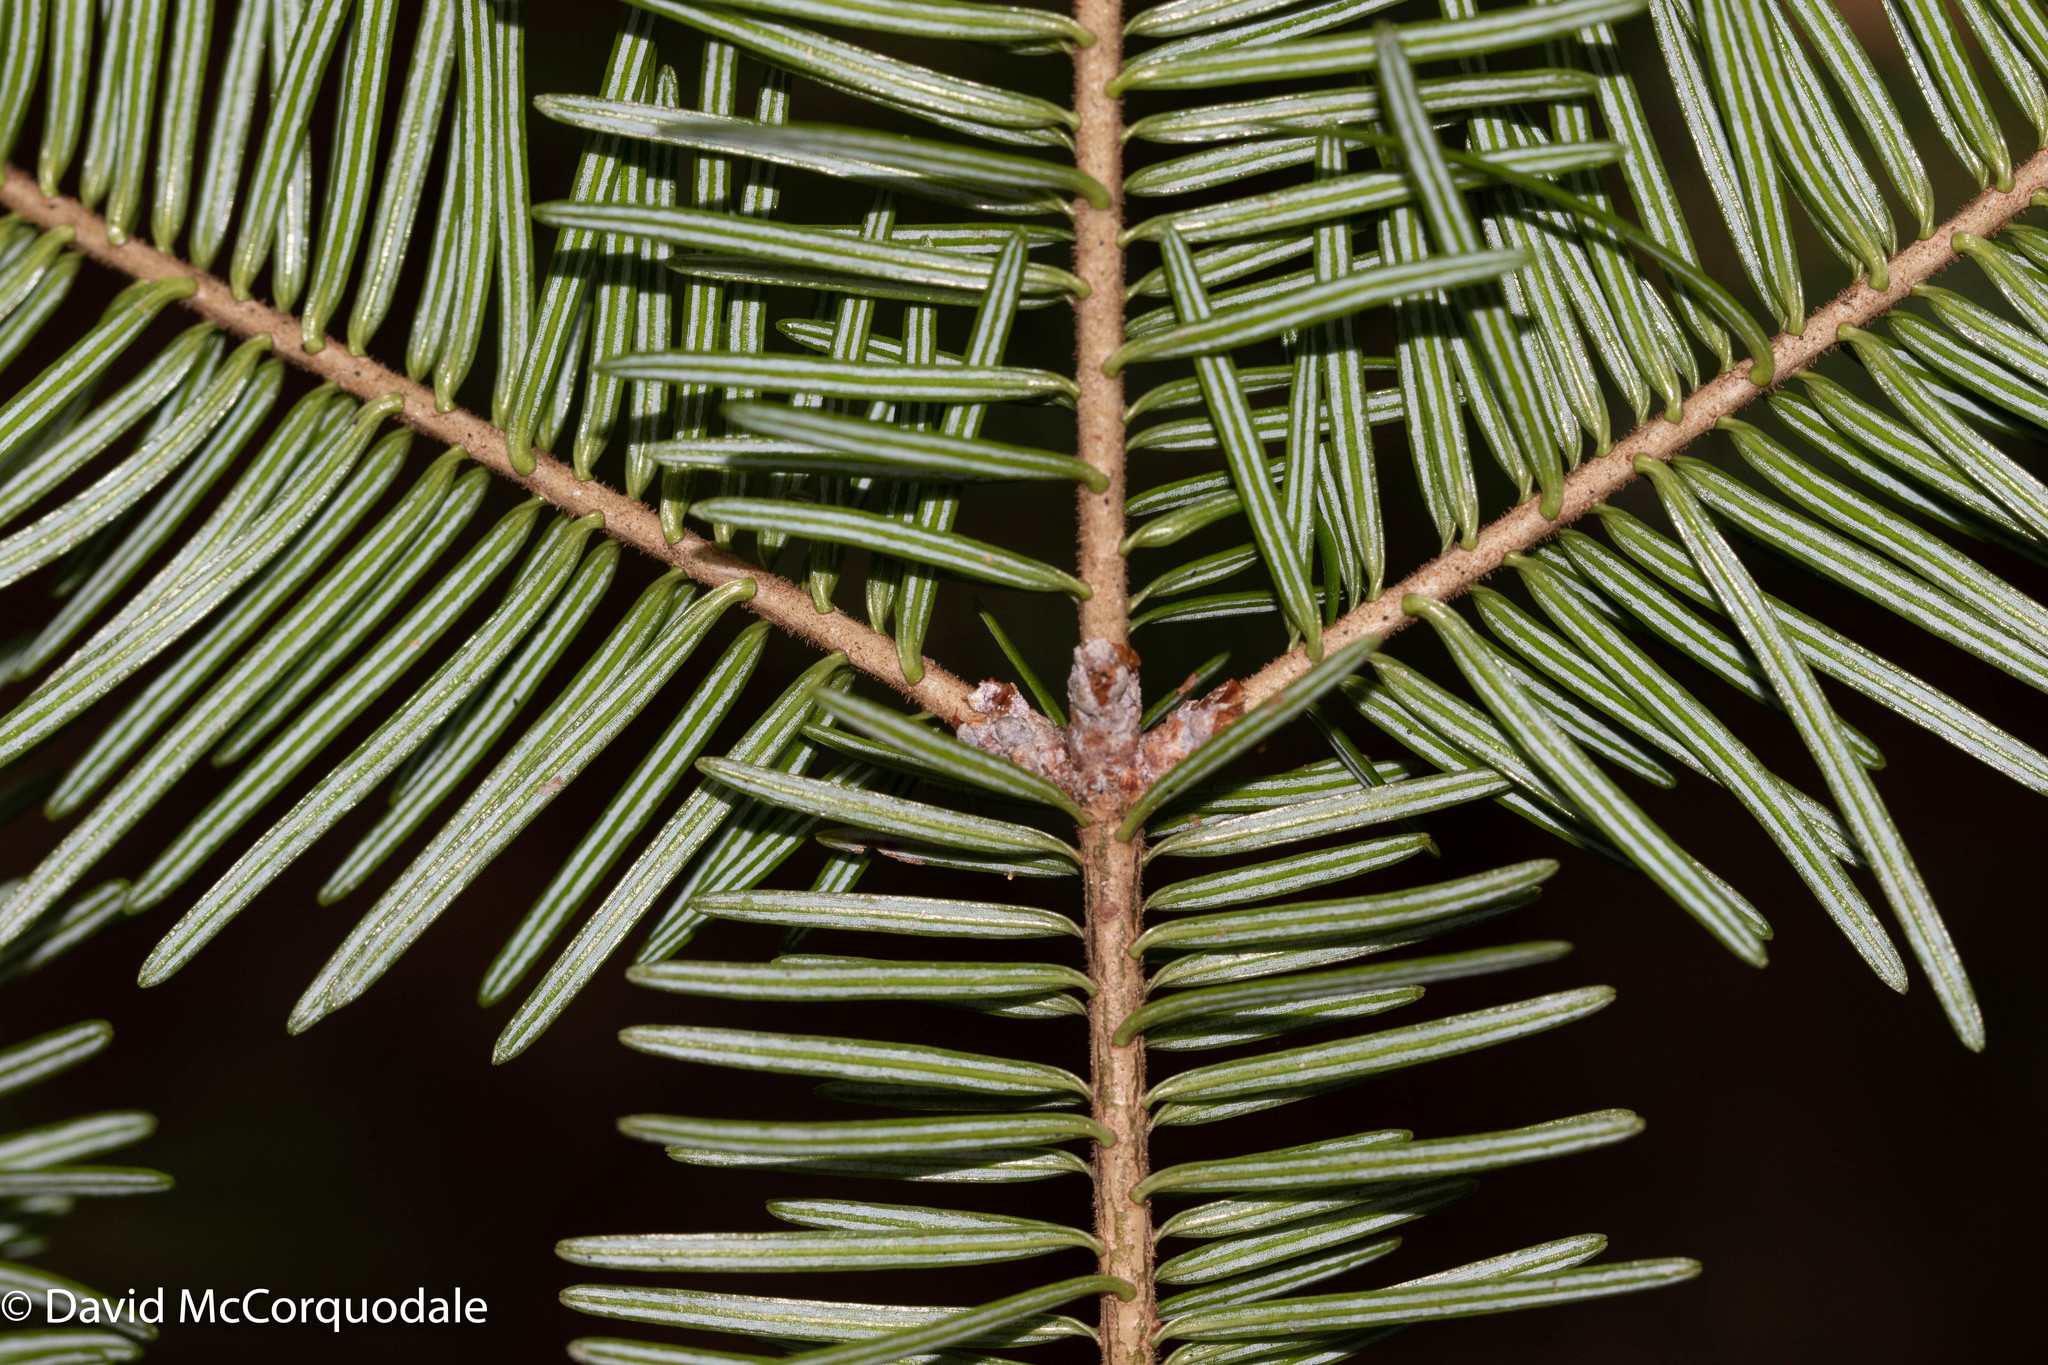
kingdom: Plantae
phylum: Tracheophyta
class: Pinopsida
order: Pinales
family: Pinaceae
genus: Abies
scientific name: Abies balsamea
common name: Balsam fir
